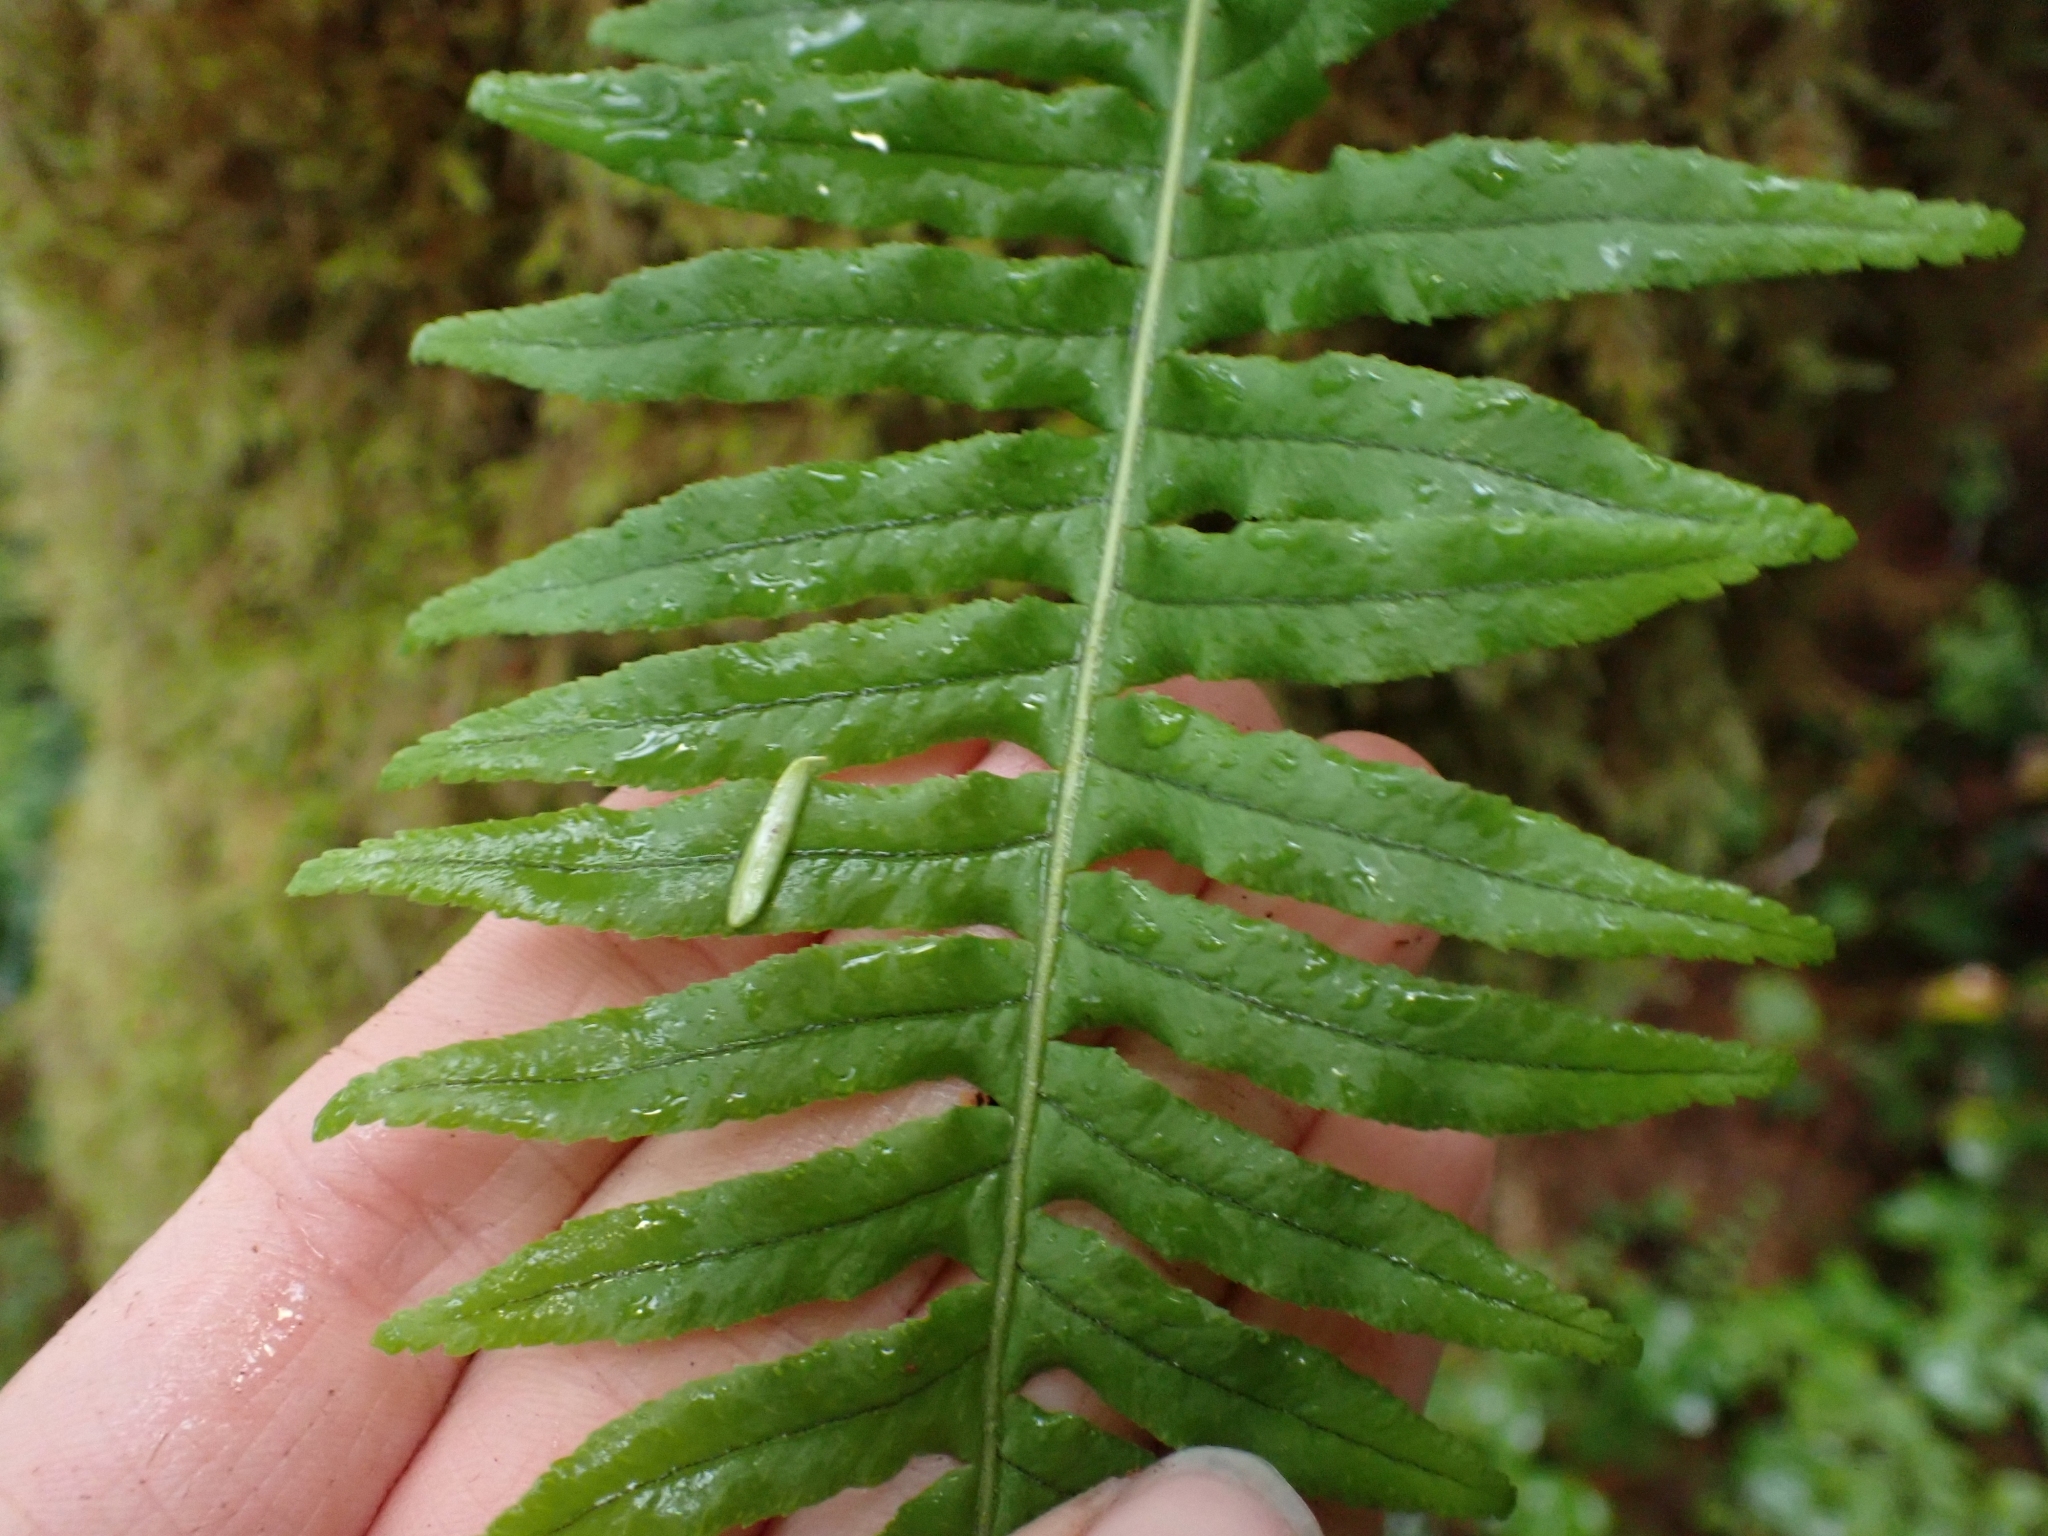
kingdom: Plantae
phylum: Tracheophyta
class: Polypodiopsida
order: Polypodiales
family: Polypodiaceae
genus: Polypodium
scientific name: Polypodium glycyrrhiza
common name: Licorice fern
